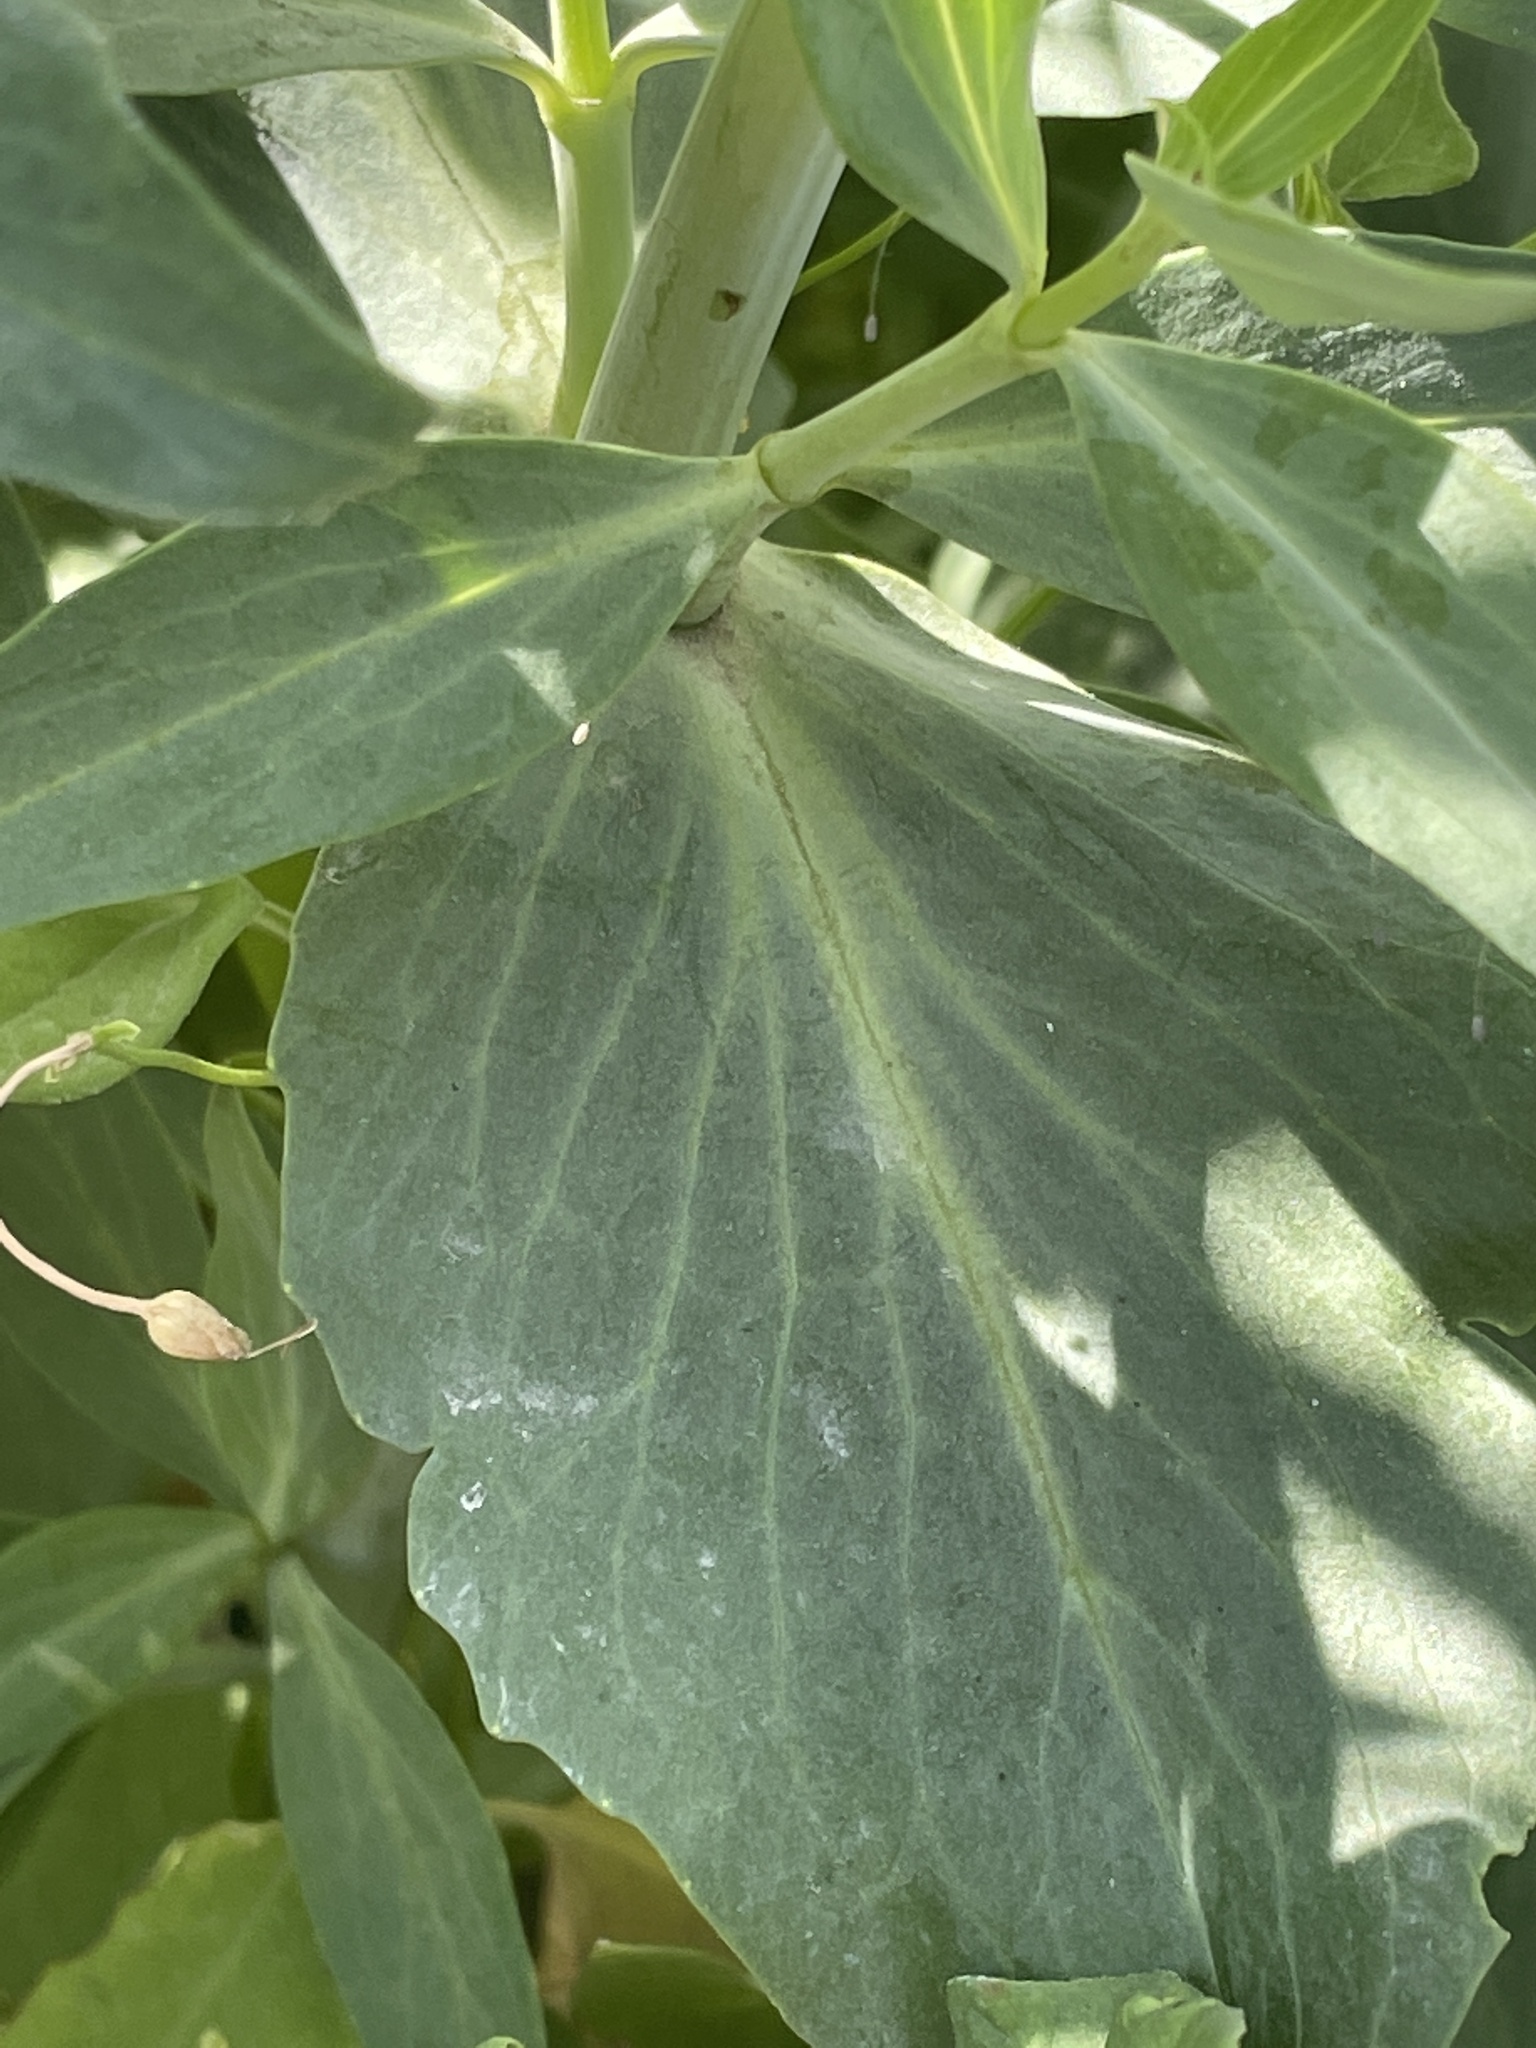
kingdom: Plantae
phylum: Tracheophyta
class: Magnoliopsida
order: Dipsacales
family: Caprifoliaceae
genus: Centranthus
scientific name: Centranthus ruber
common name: Red valerian
